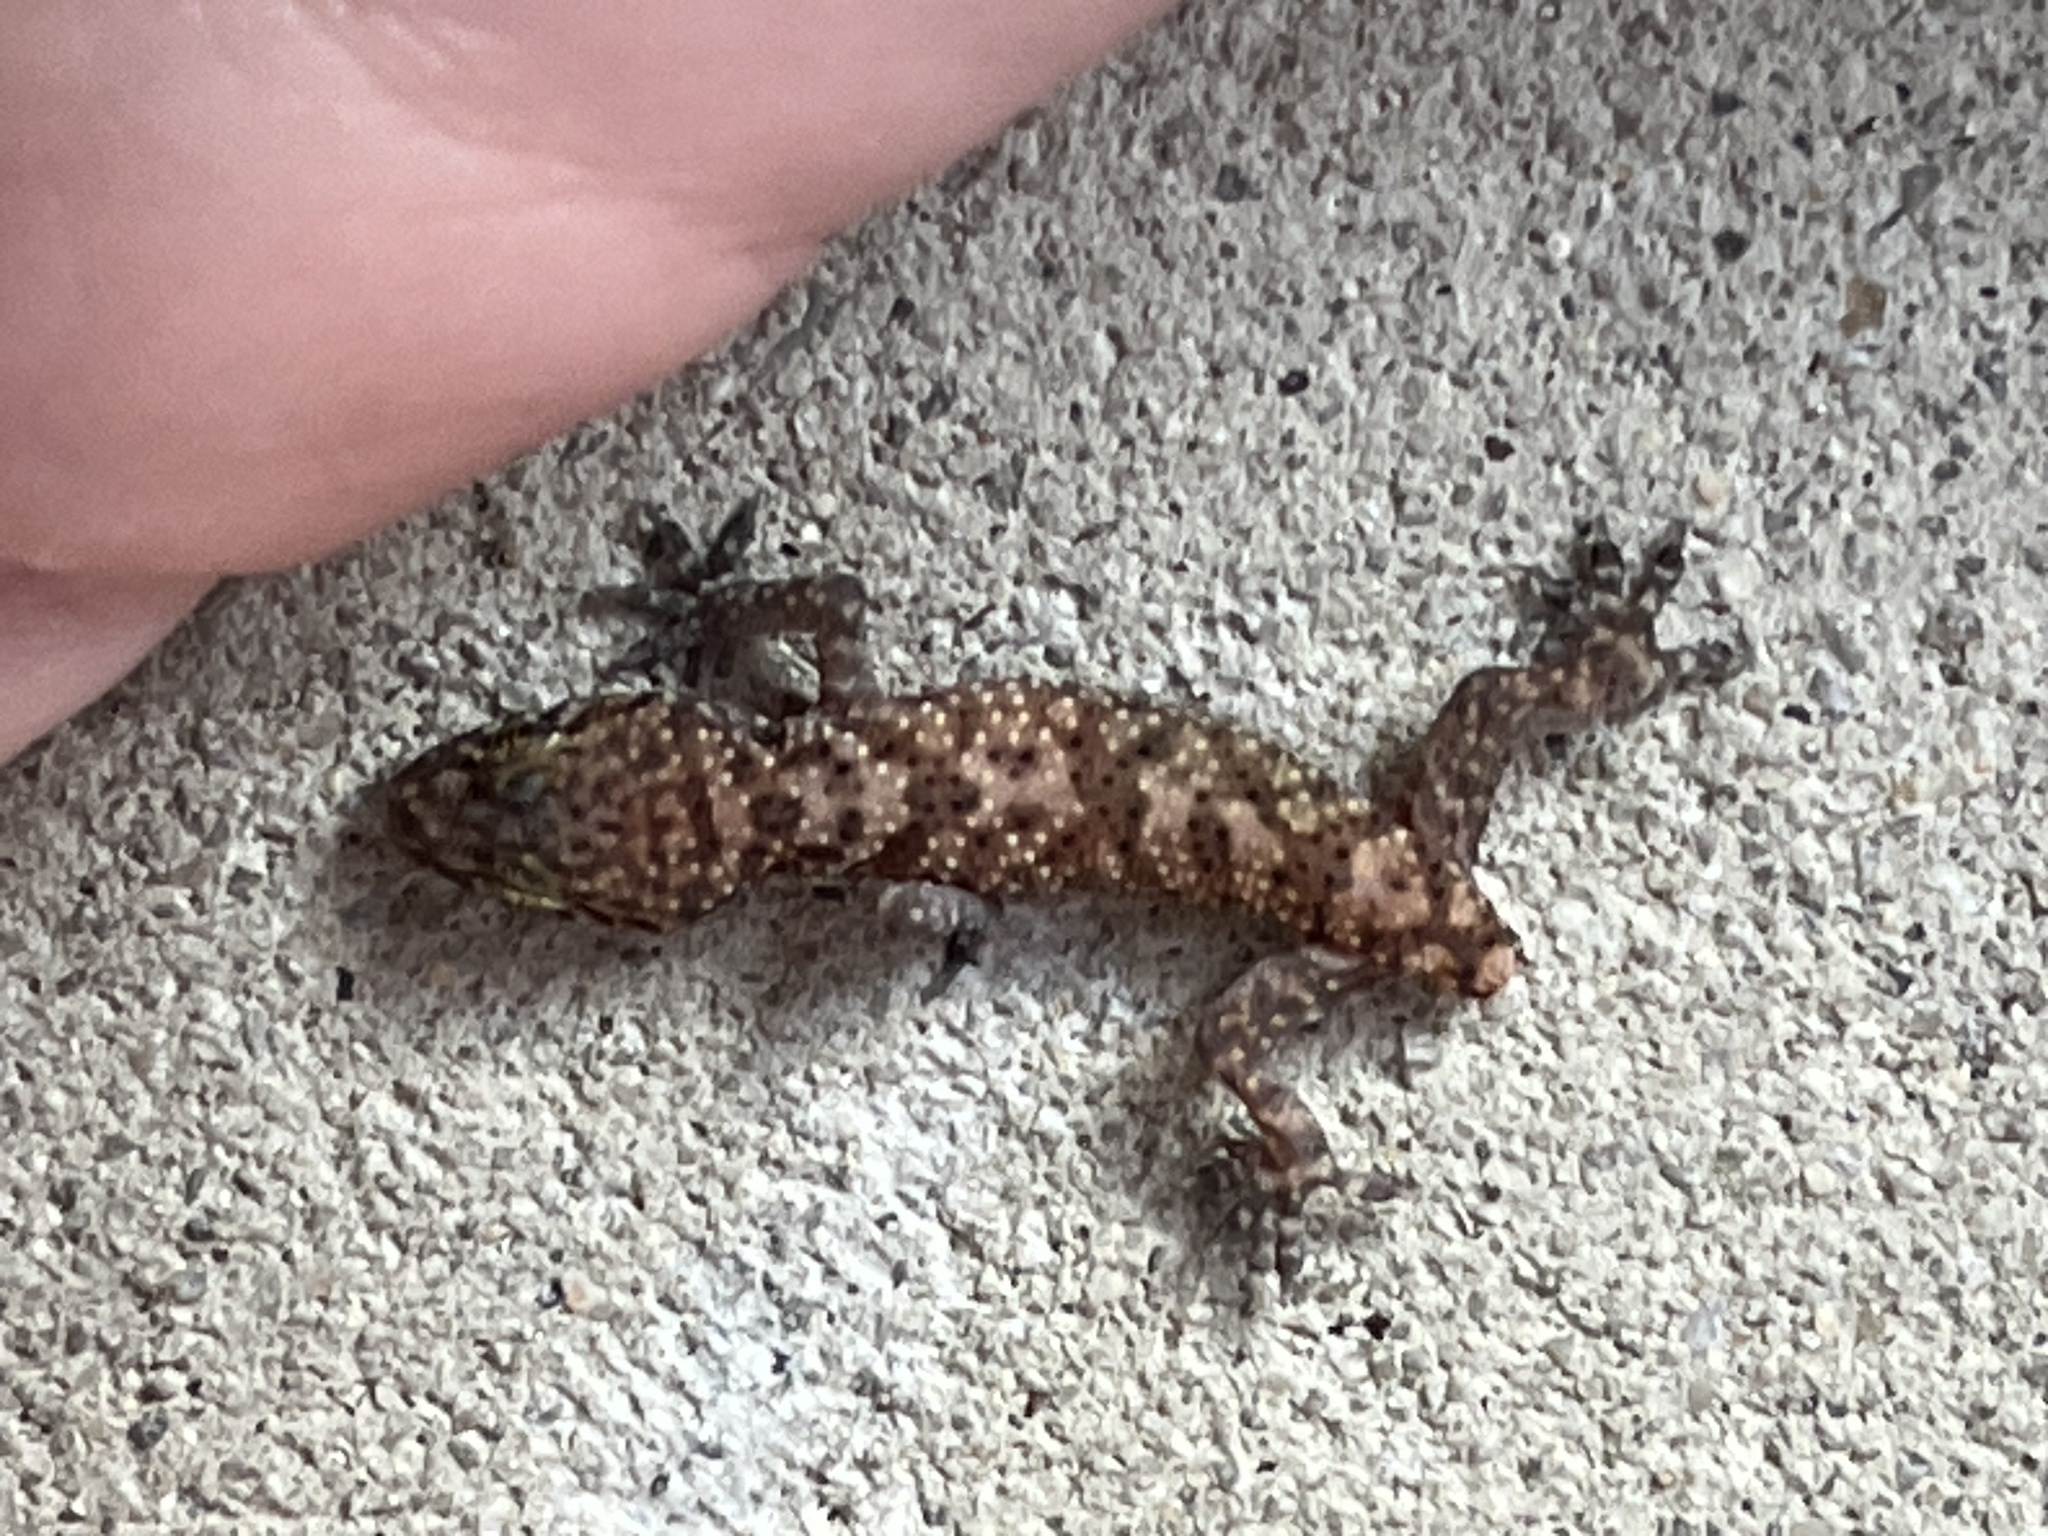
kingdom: Animalia
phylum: Chordata
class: Squamata
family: Gekkonidae
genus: Hemidactylus
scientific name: Hemidactylus turcicus
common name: Turkish gecko
